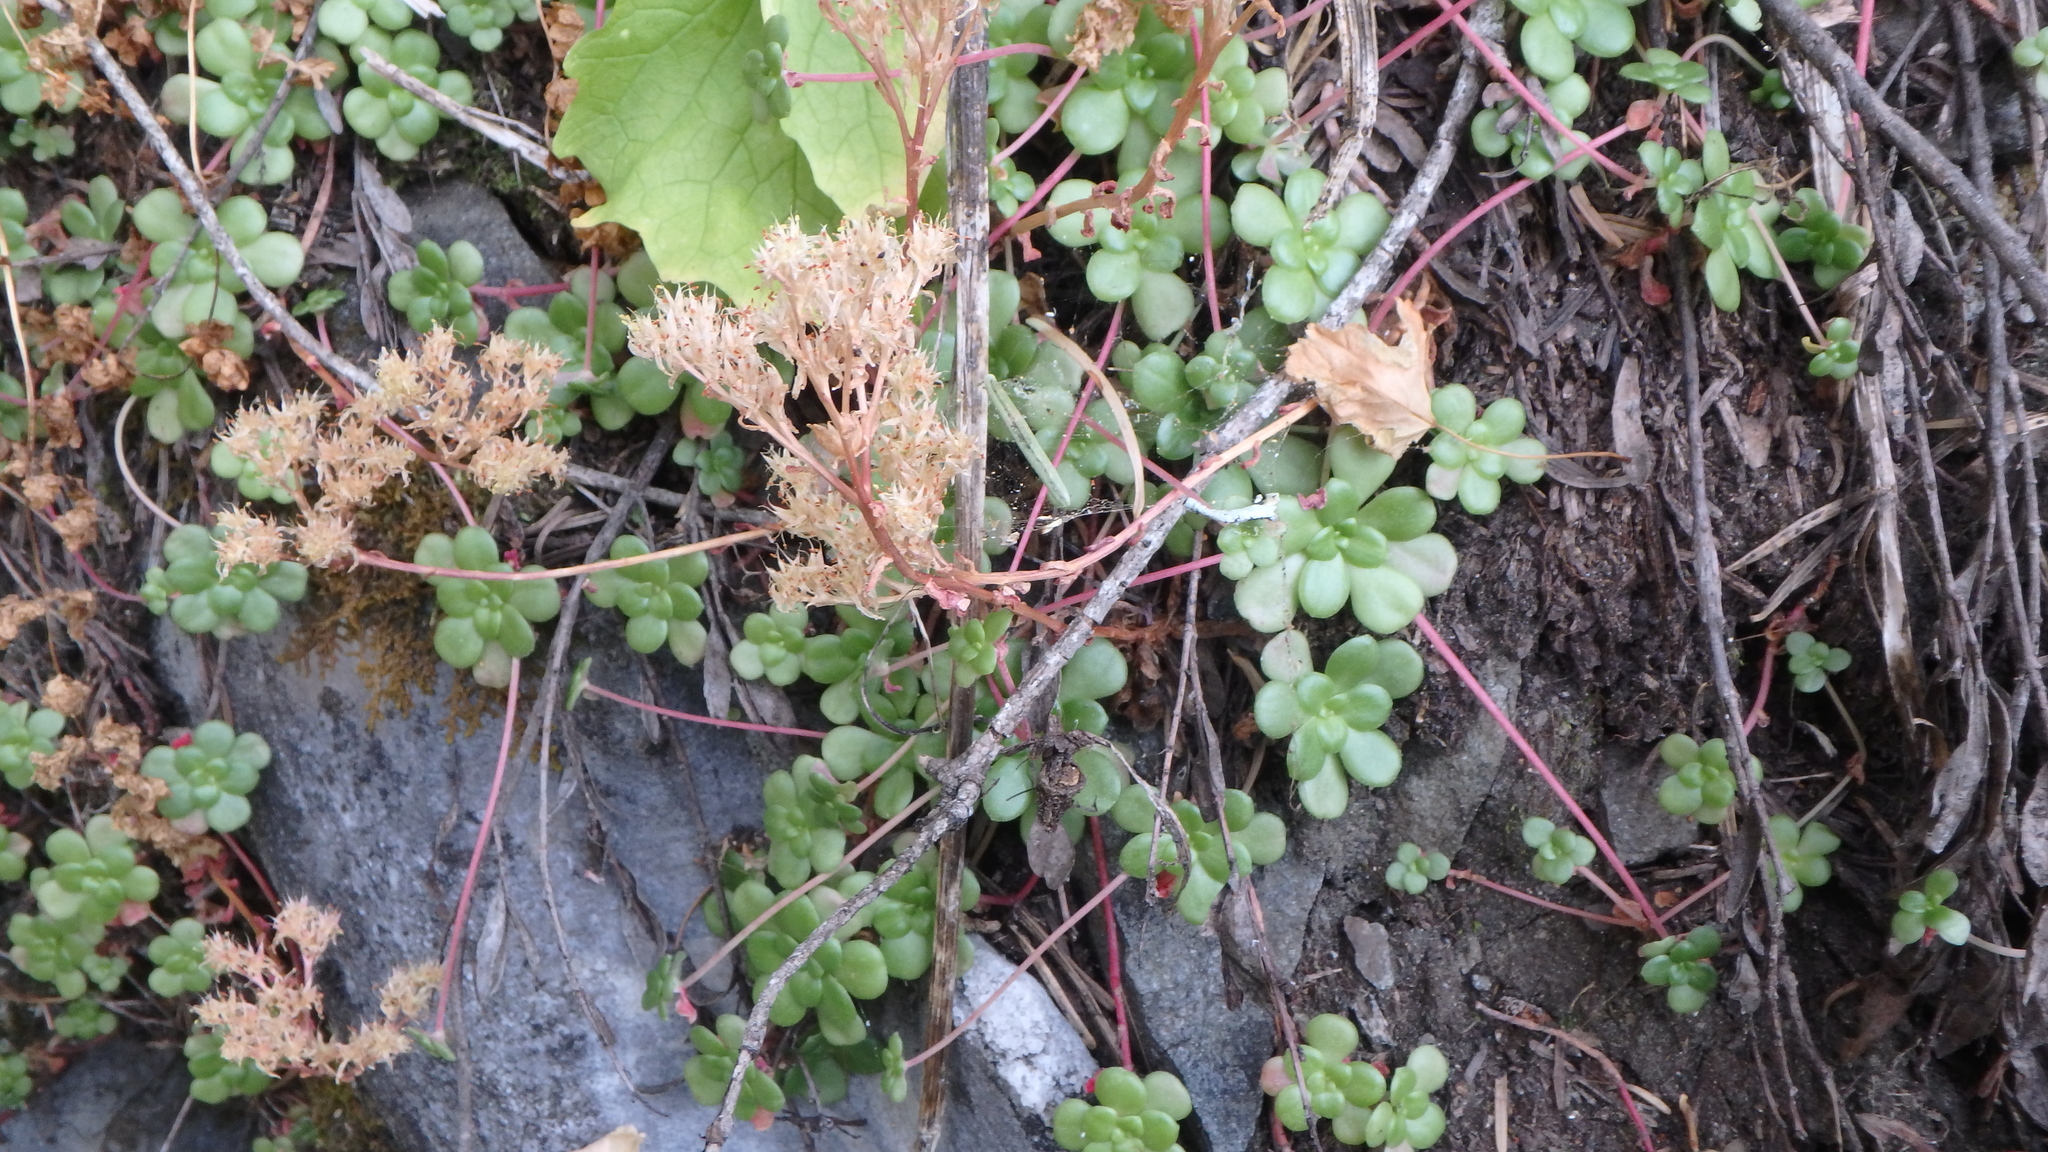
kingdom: Plantae
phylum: Tracheophyta
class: Magnoliopsida
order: Saxifragales
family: Crassulaceae
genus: Sedum
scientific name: Sedum spathulifolium
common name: Colorado stonecrop
